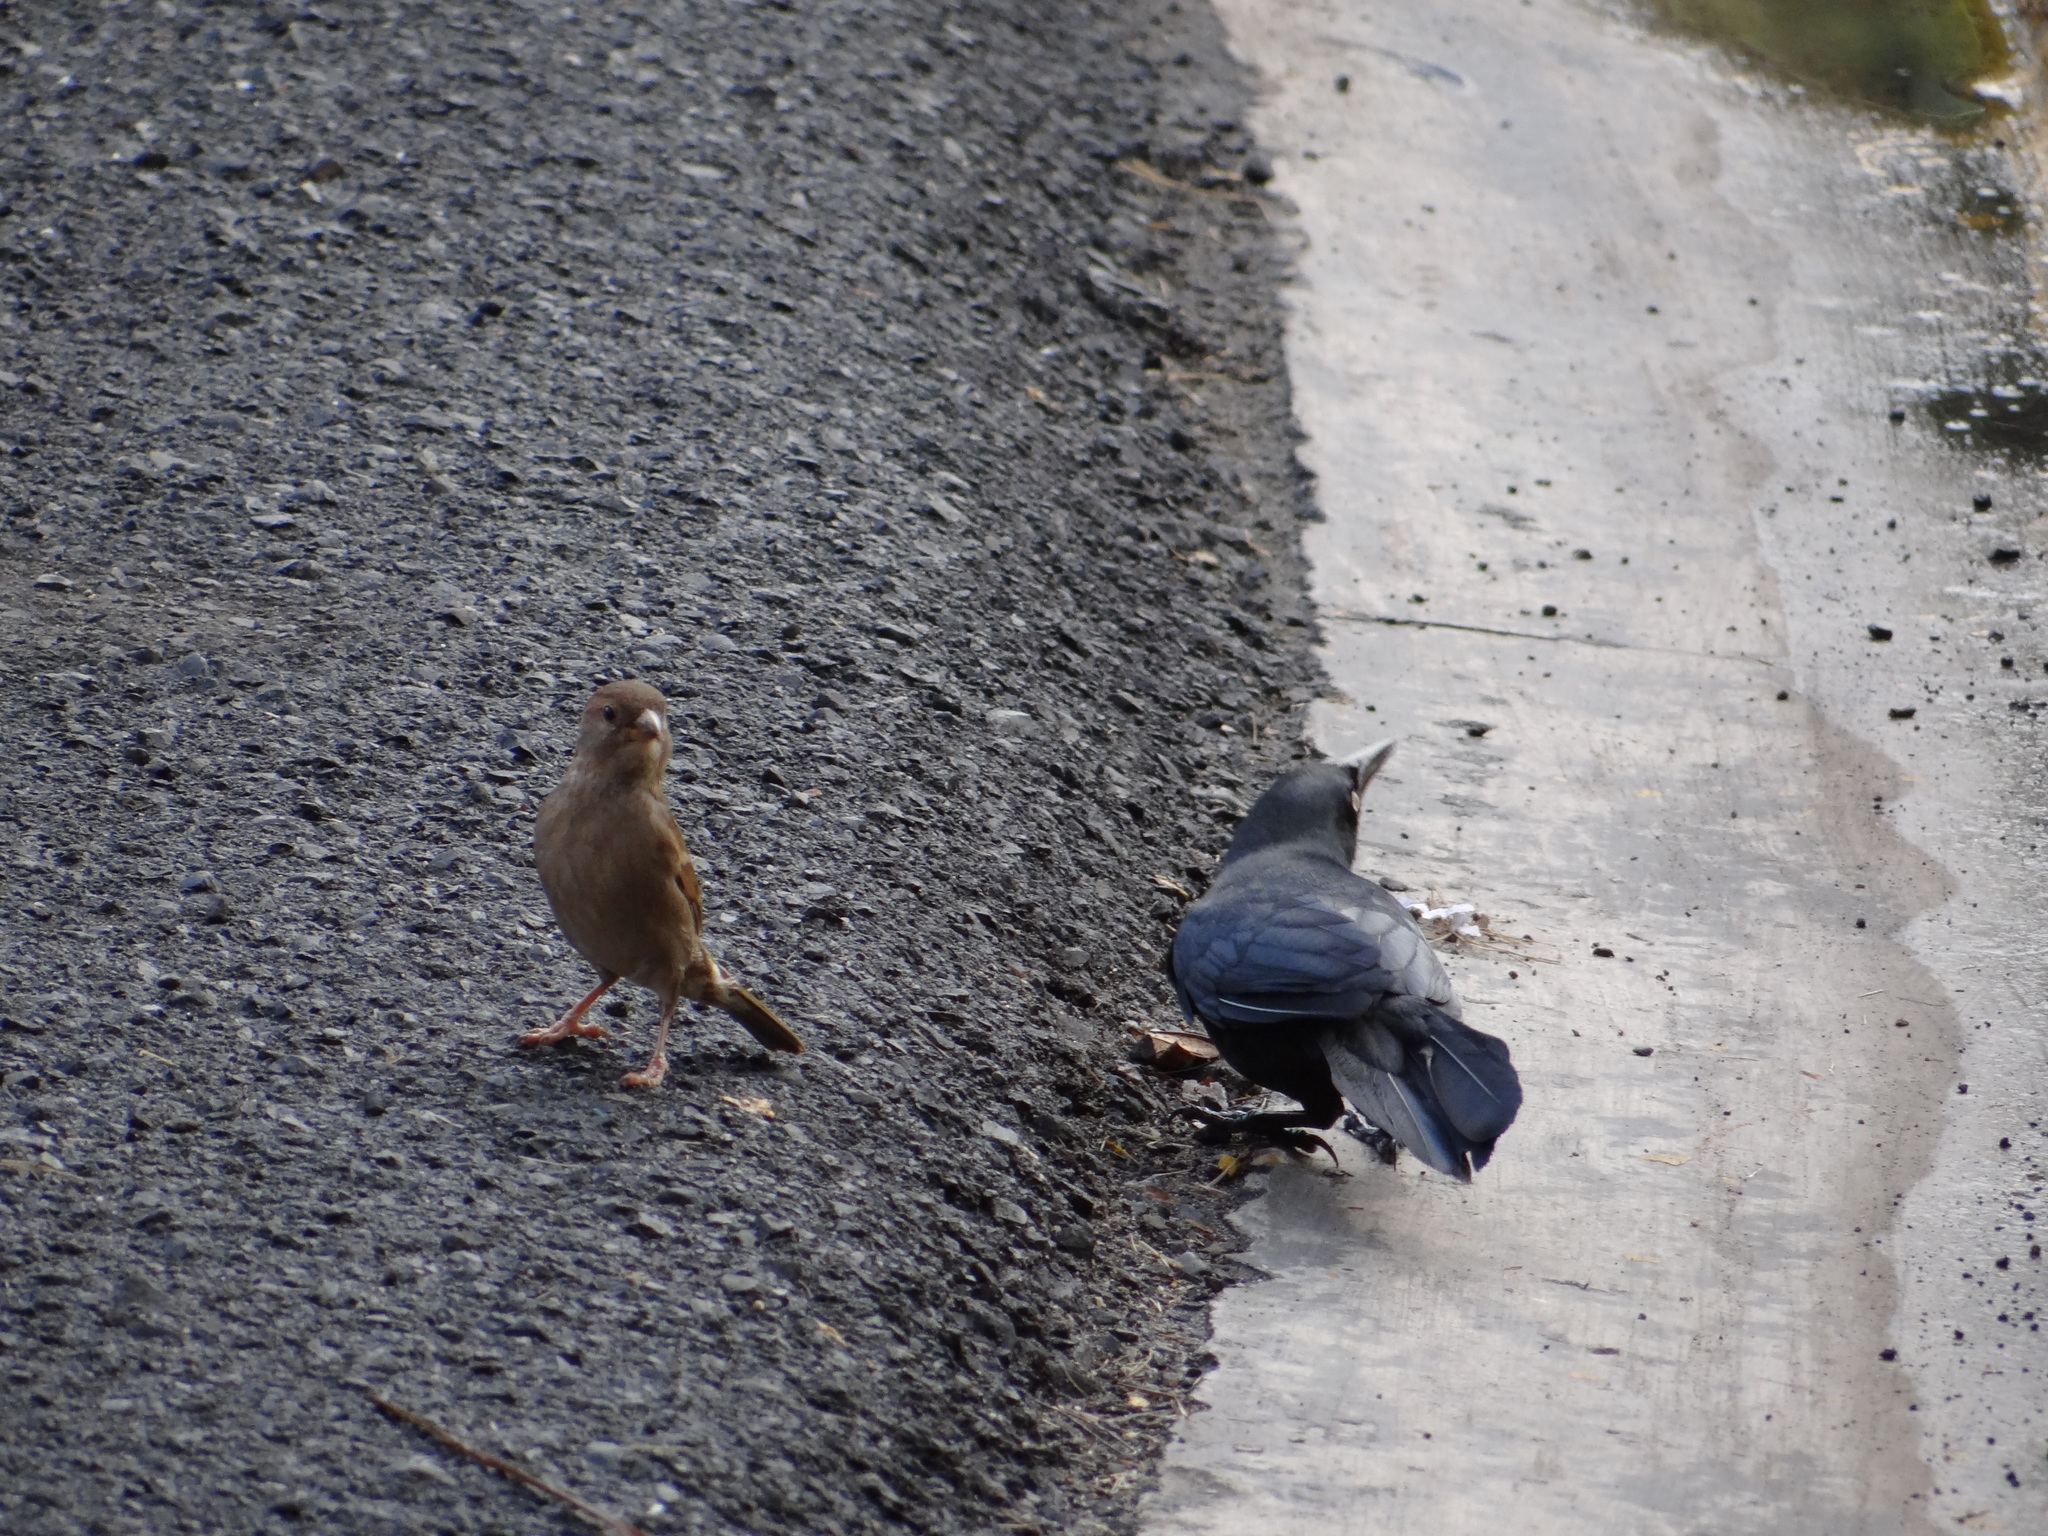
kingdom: Animalia
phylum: Chordata
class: Aves
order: Passeriformes
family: Passeridae
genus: Passer
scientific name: Passer domesticus
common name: House sparrow
